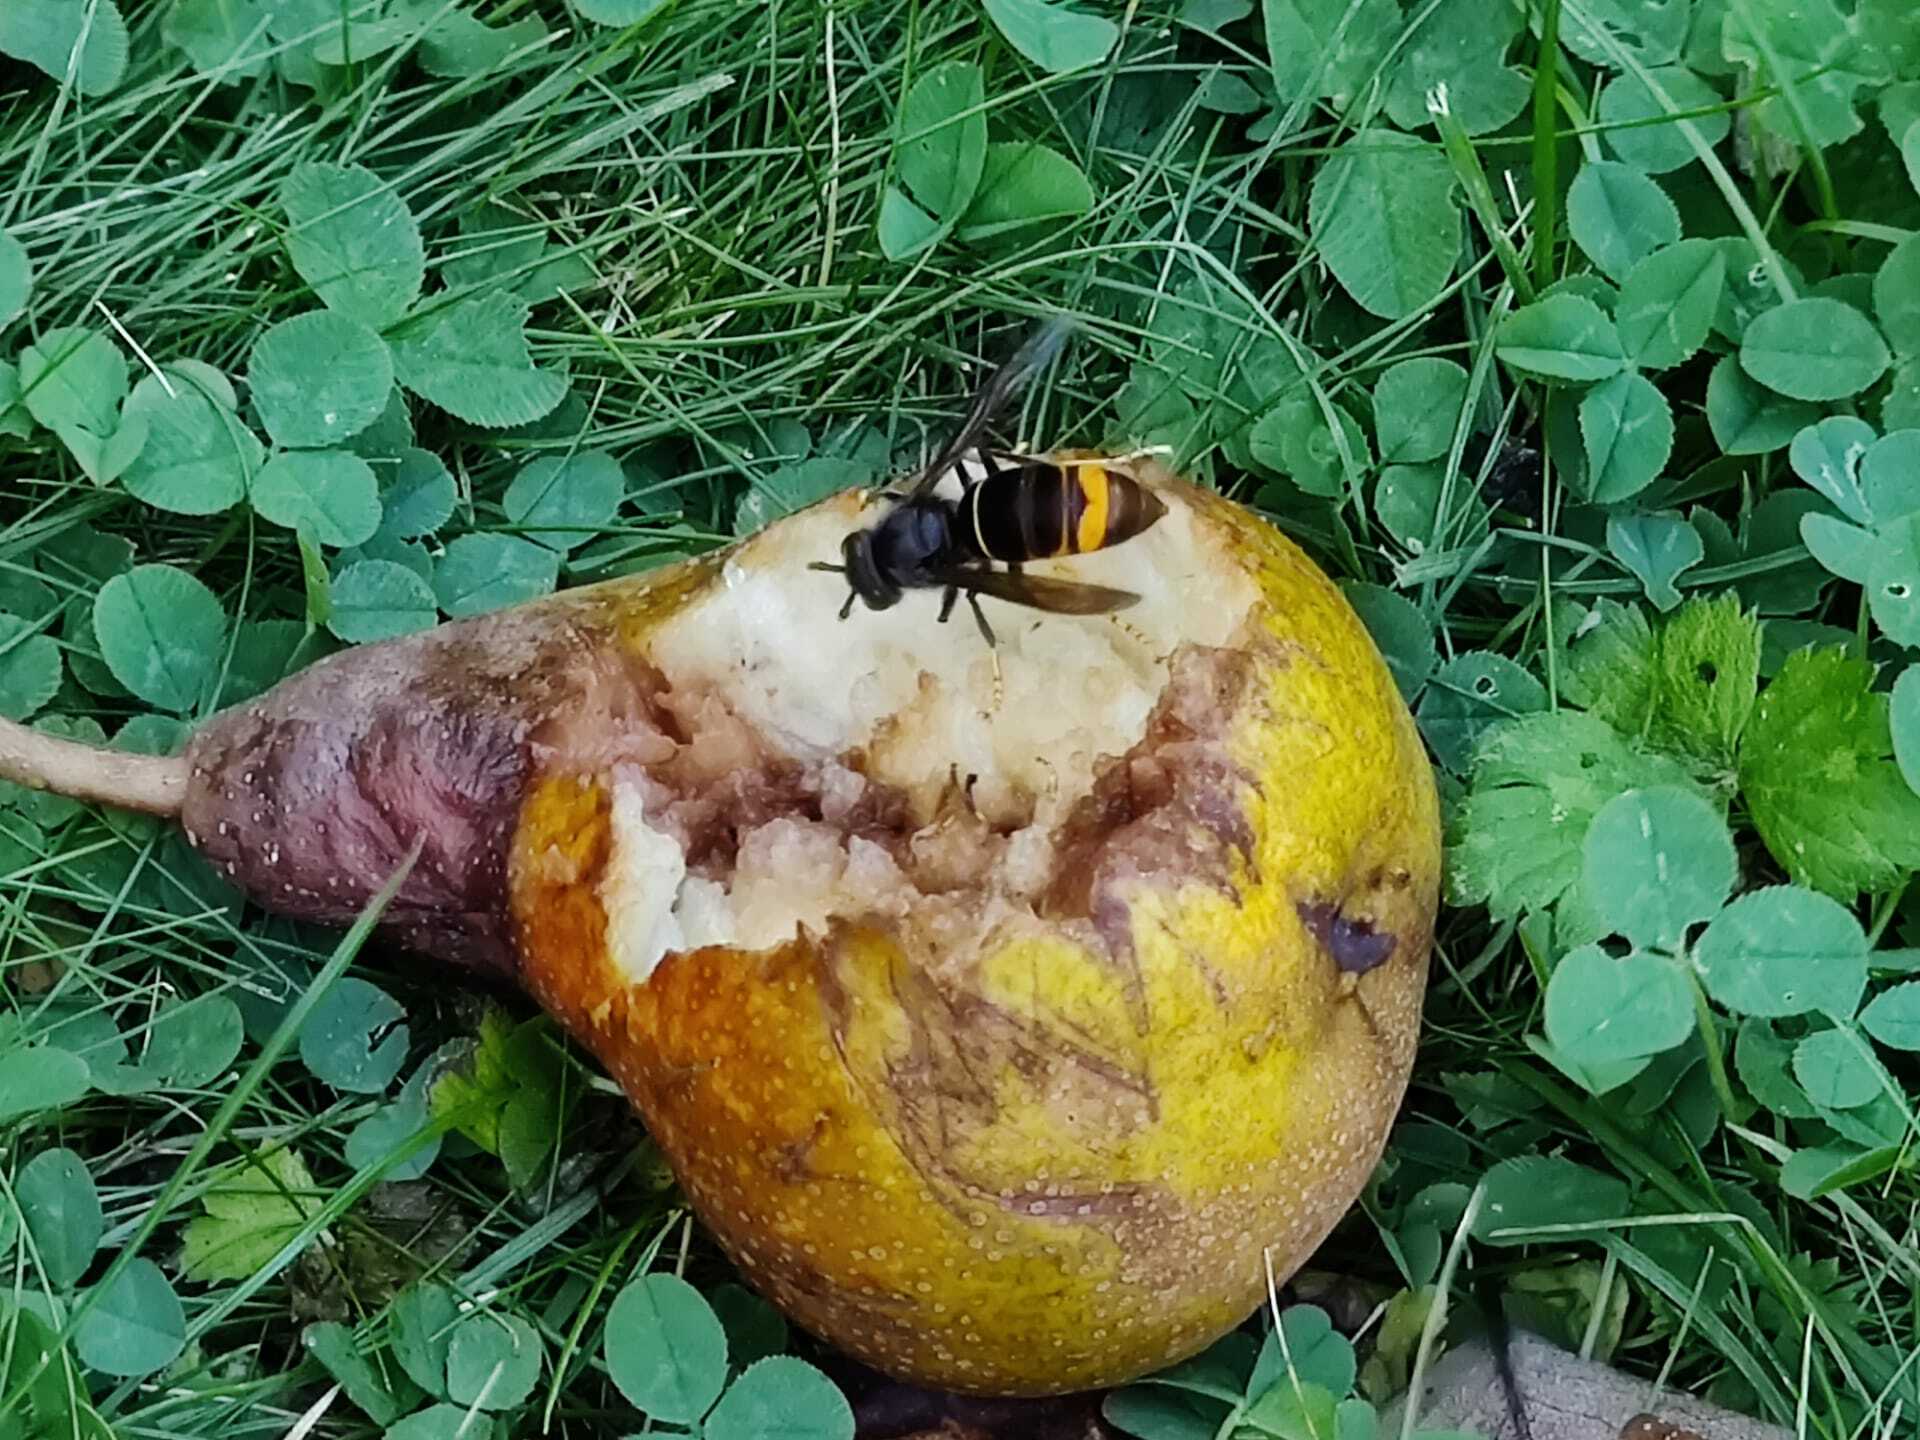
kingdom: Animalia
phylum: Arthropoda
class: Insecta
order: Hymenoptera
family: Vespidae
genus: Vespa
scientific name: Vespa velutina
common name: Asian hornet
